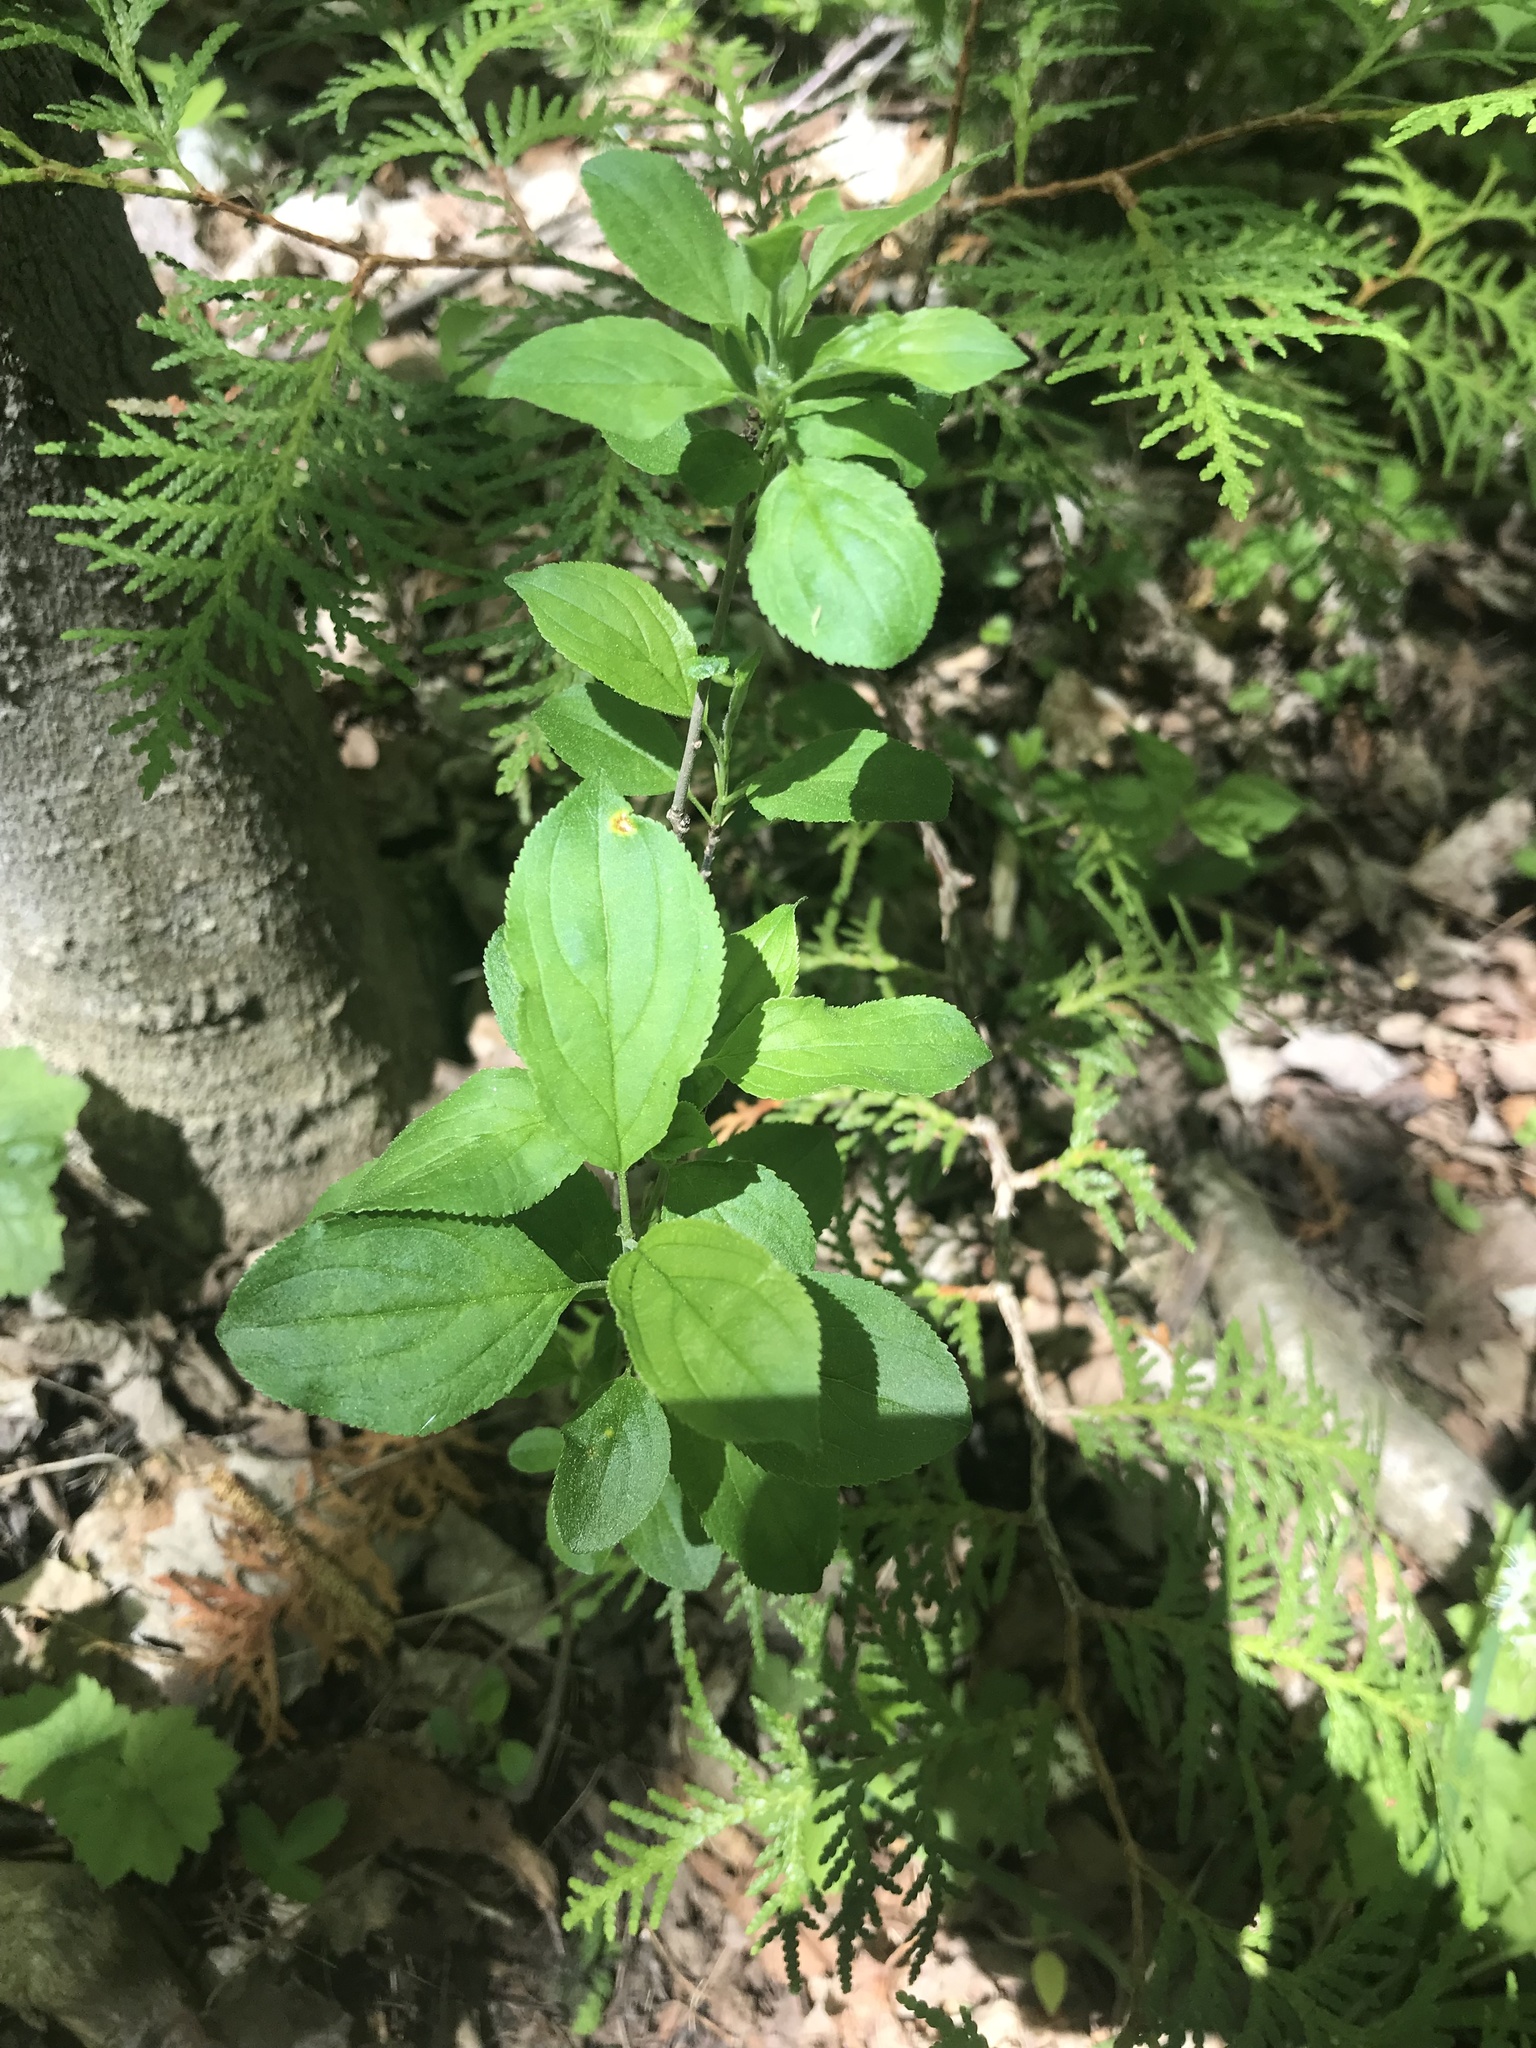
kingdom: Plantae
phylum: Tracheophyta
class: Magnoliopsida
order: Rosales
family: Rhamnaceae
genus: Rhamnus
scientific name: Rhamnus cathartica
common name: Common buckthorn
